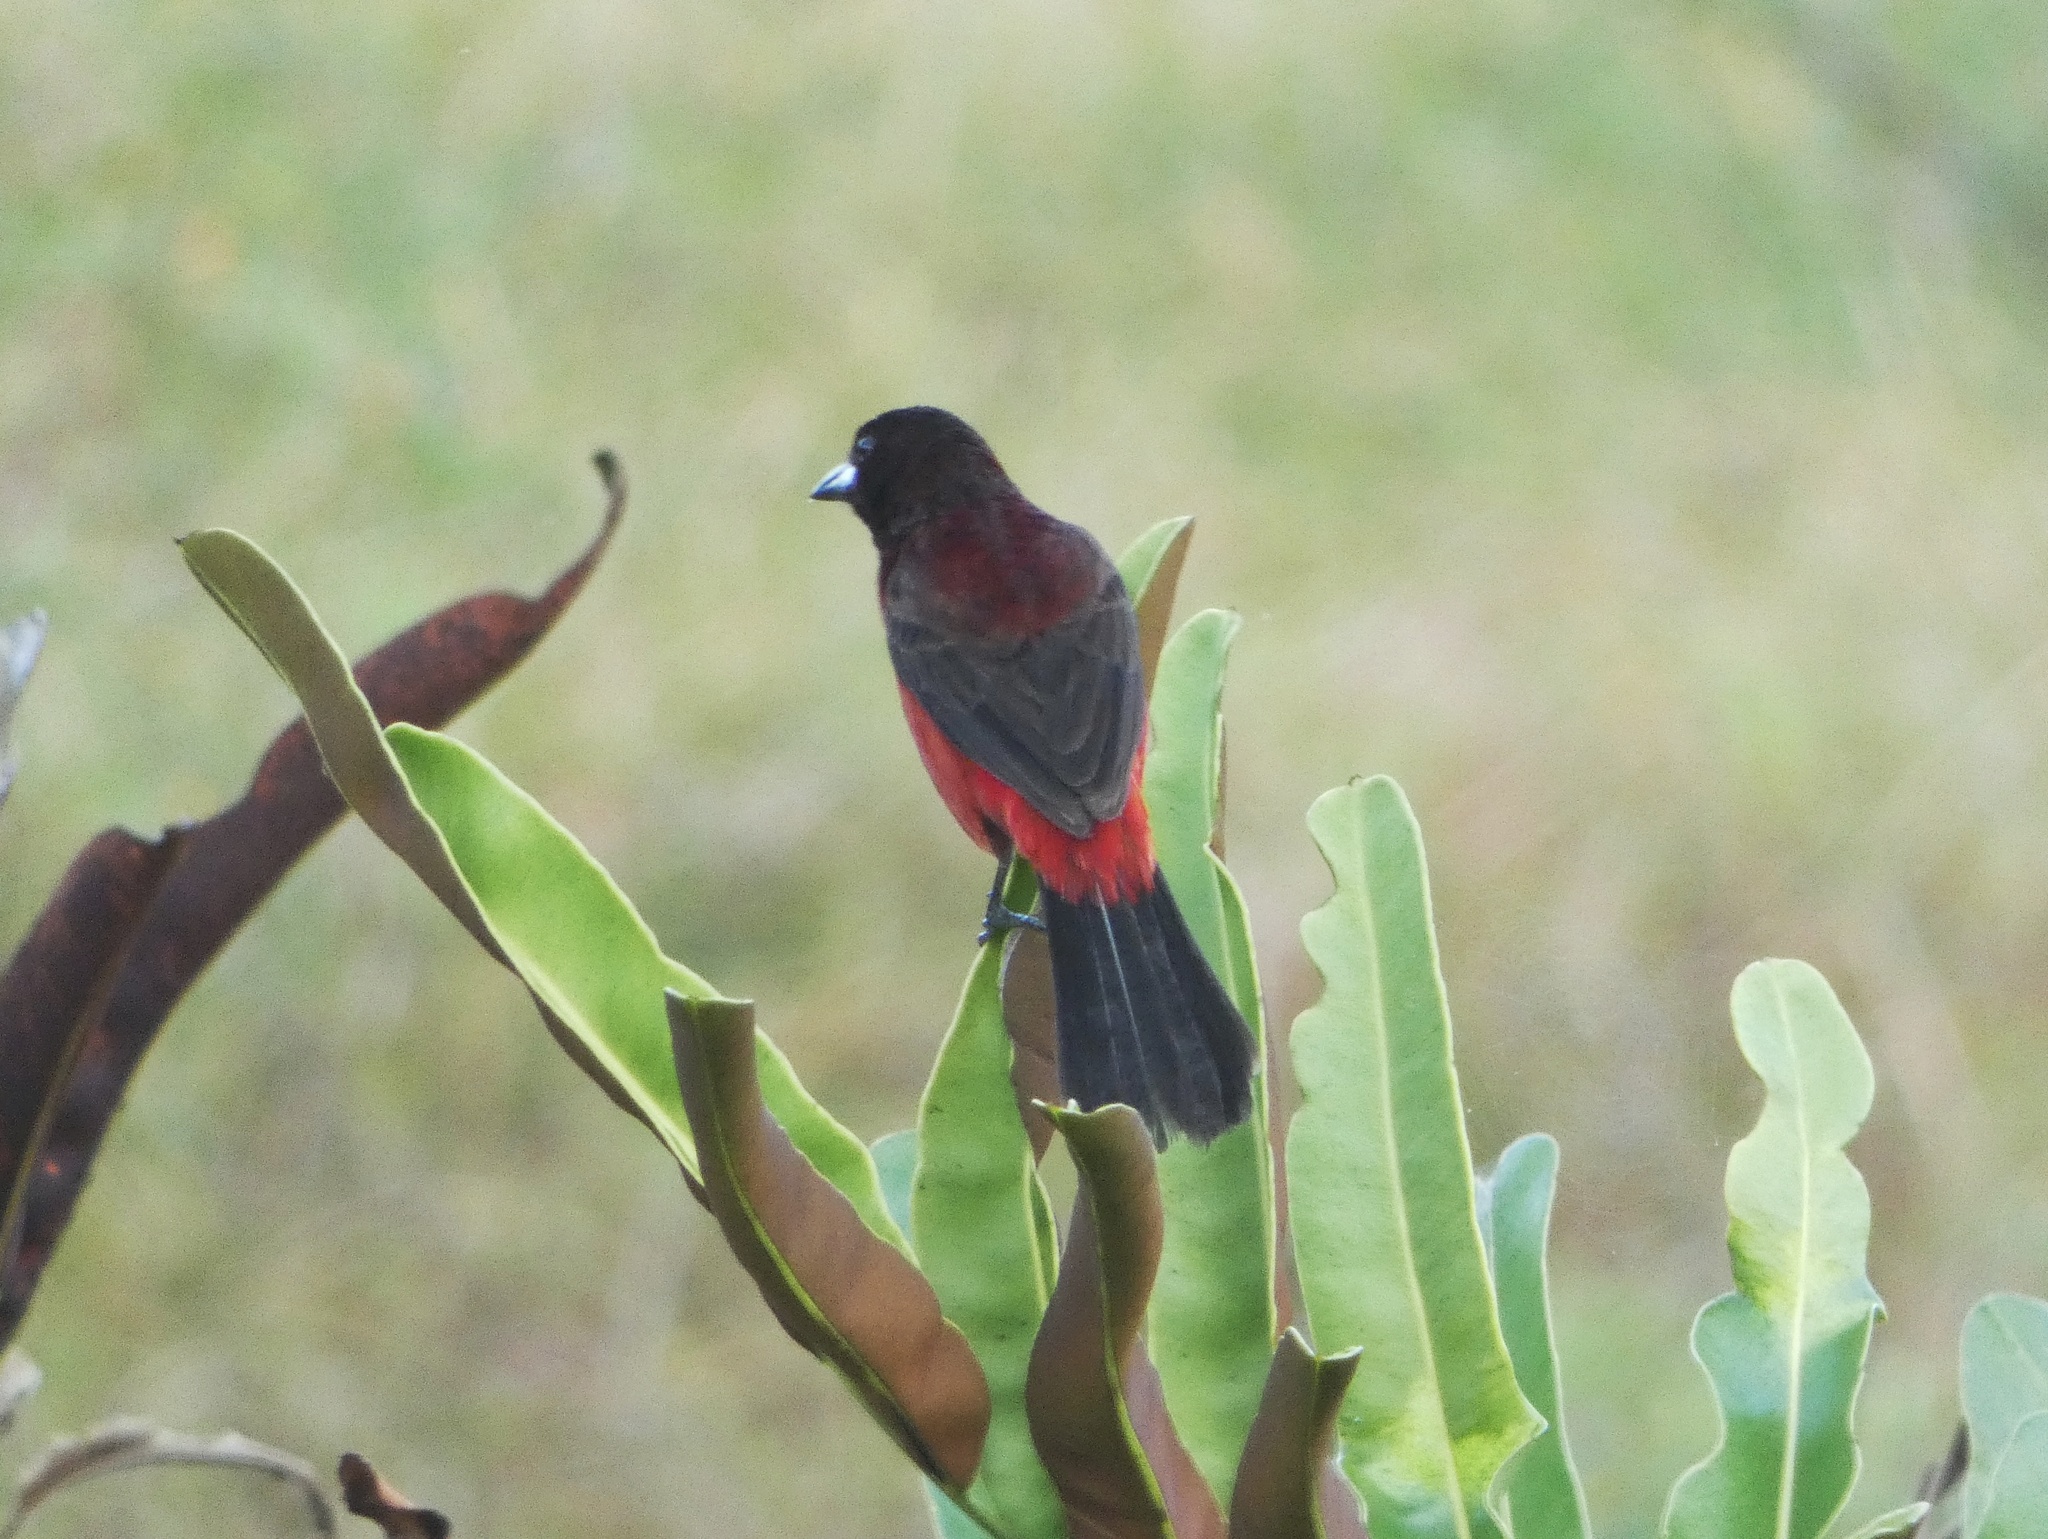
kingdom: Animalia
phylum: Chordata
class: Aves
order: Passeriformes
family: Thraupidae
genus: Ramphocelus
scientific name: Ramphocelus dimidiatus
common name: Crimson-backed tanager
